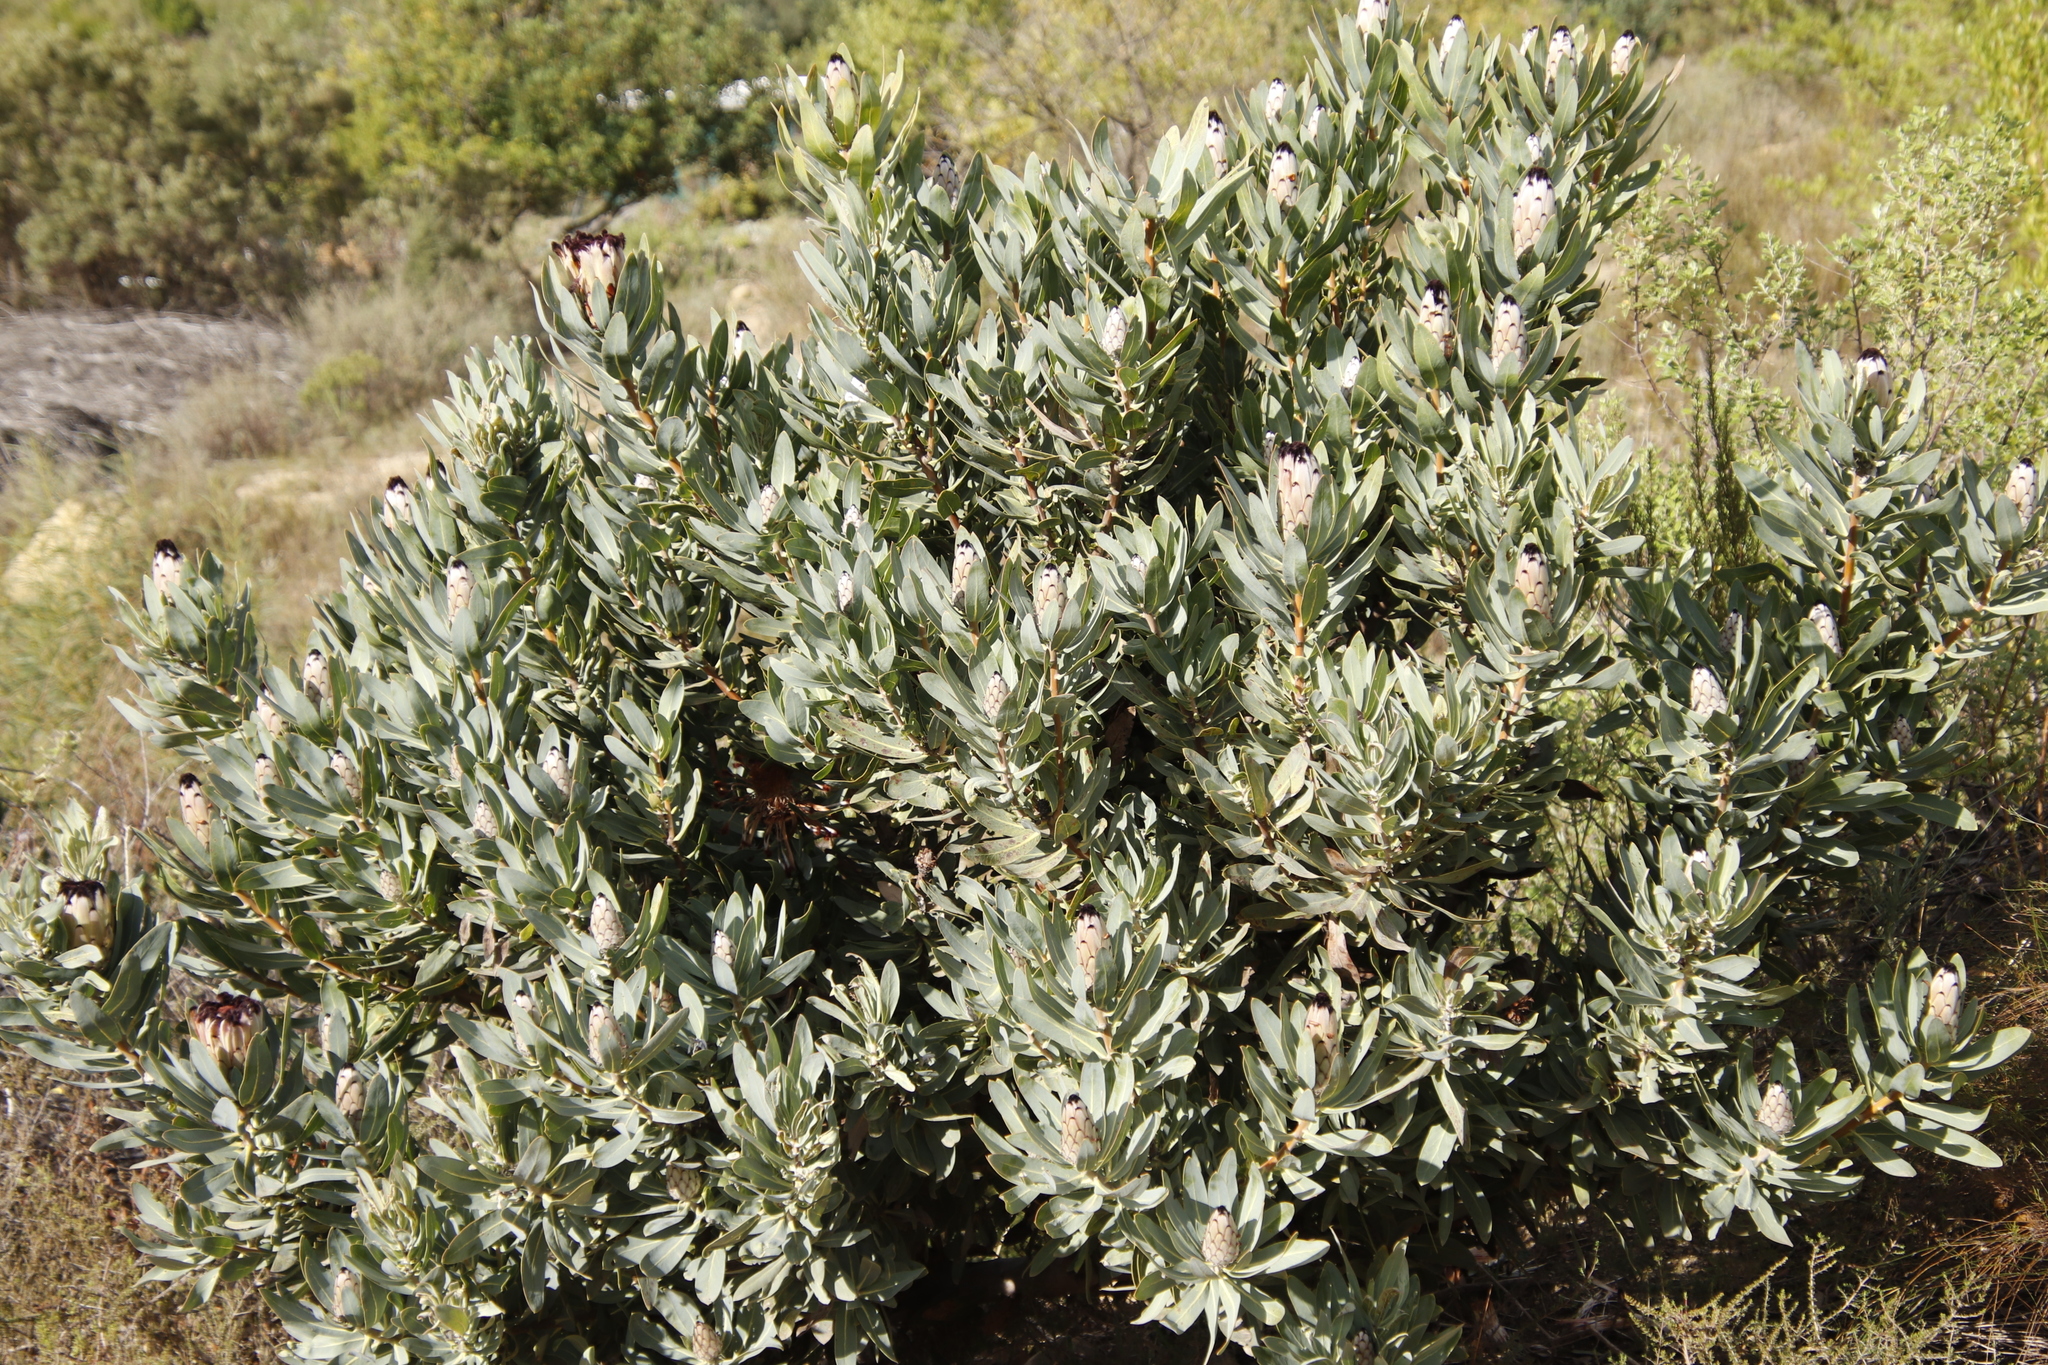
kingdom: Plantae
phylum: Tracheophyta
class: Magnoliopsida
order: Proteales
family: Proteaceae
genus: Protea
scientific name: Protea laurifolia
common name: Grey-leaf sugarbsh
